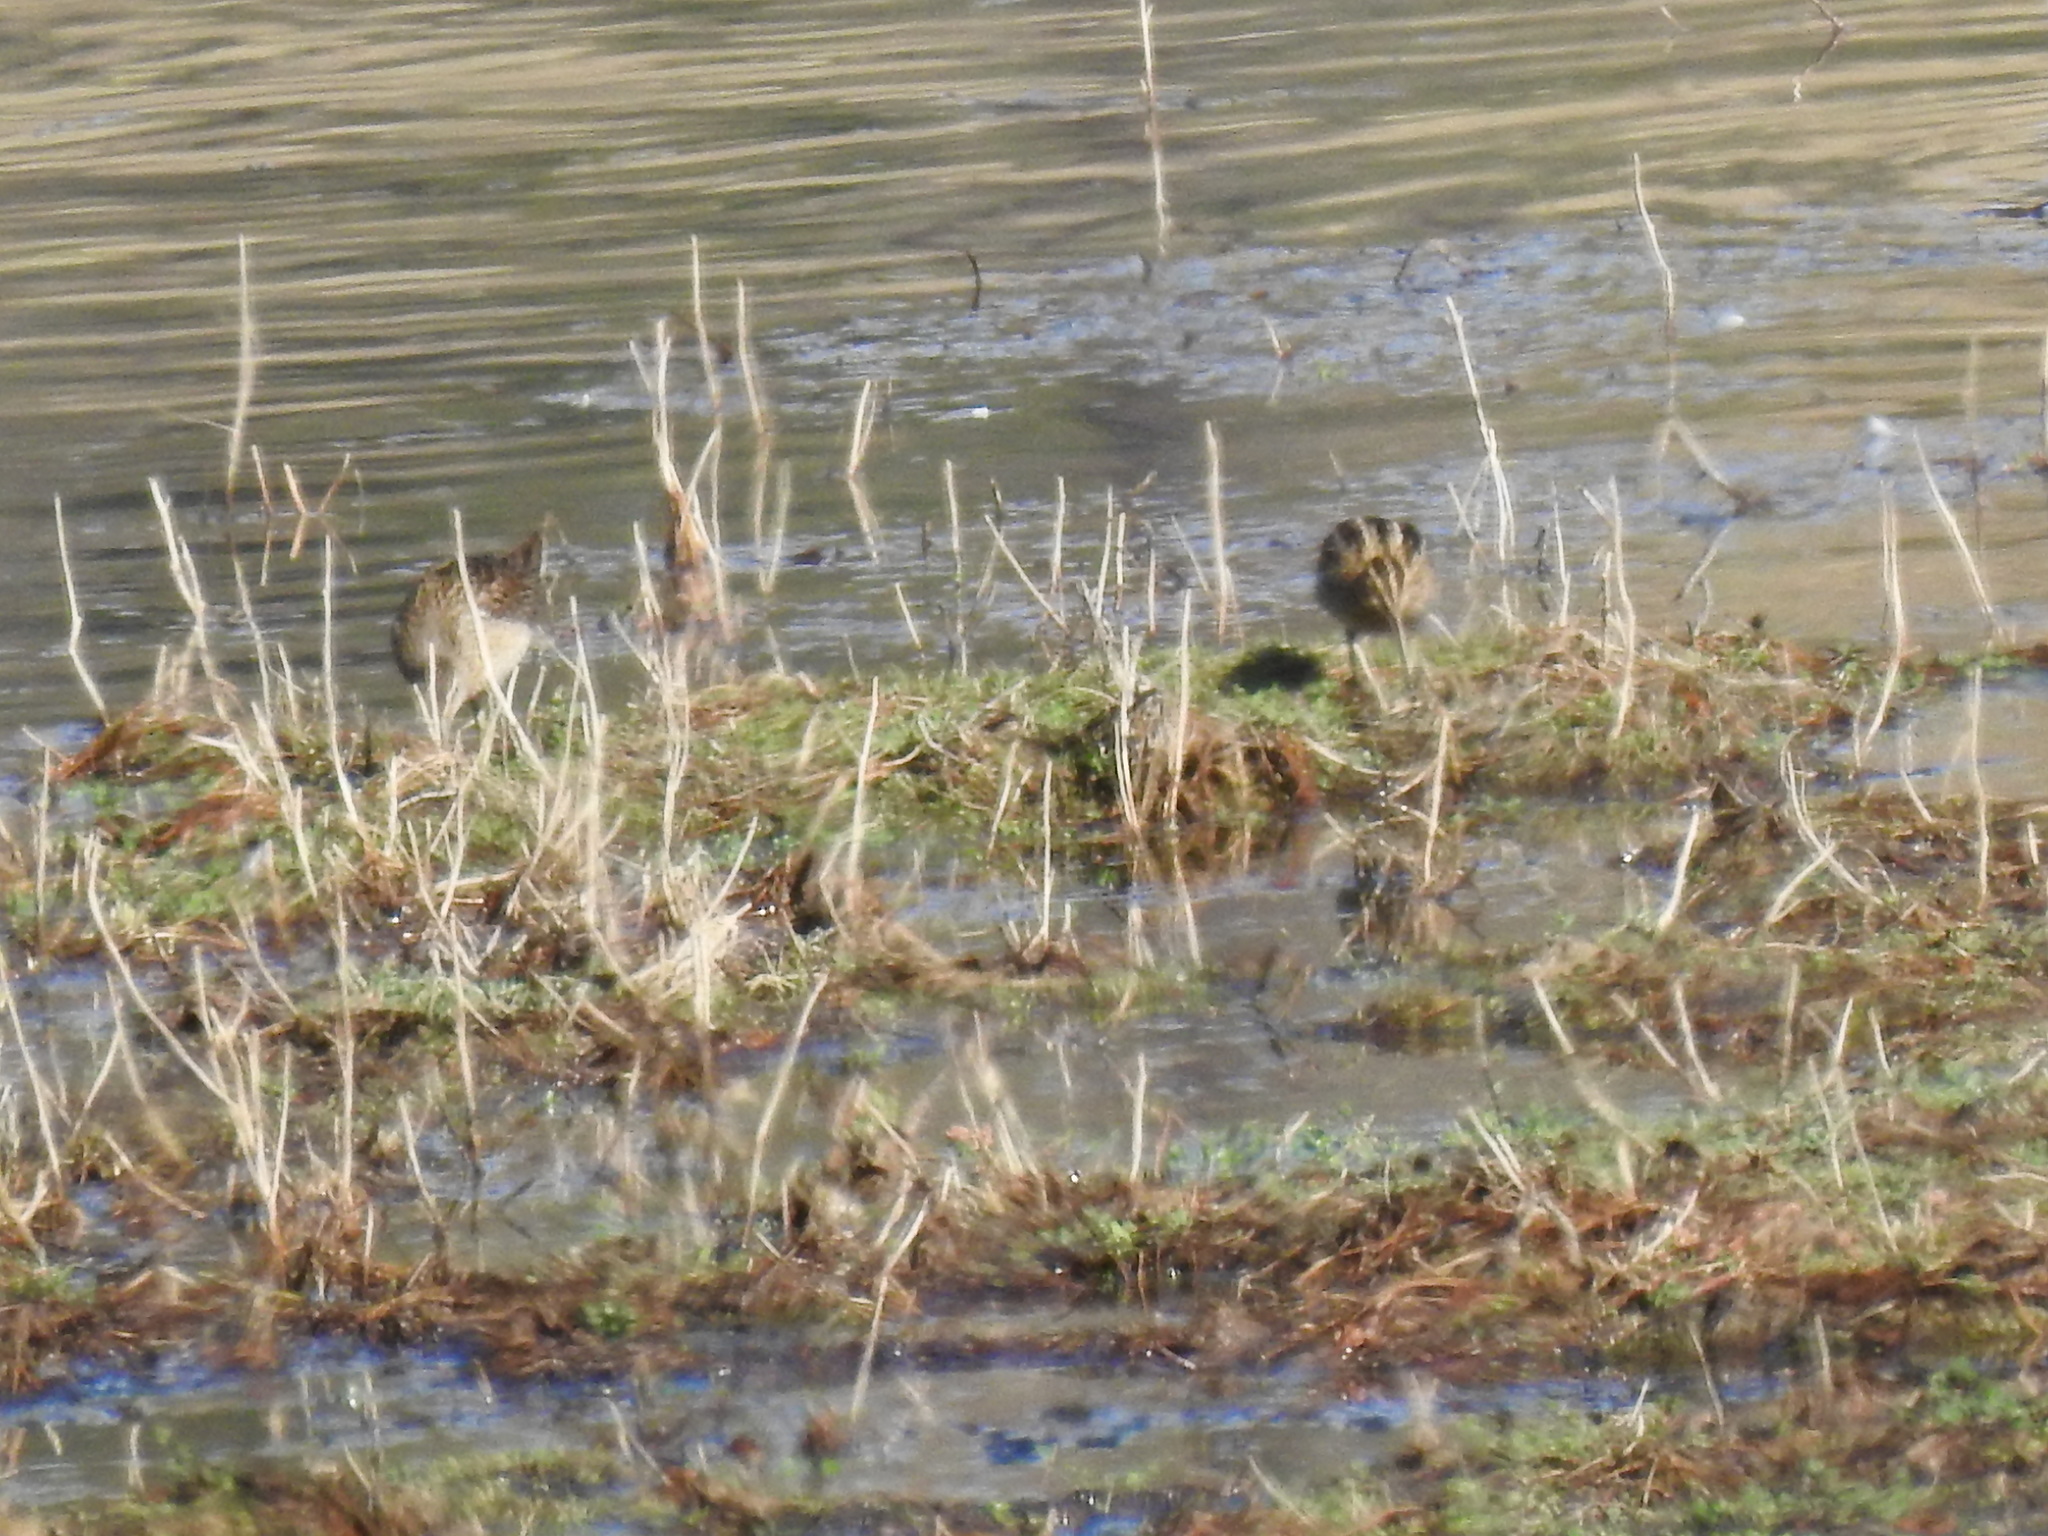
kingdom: Animalia
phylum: Chordata
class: Aves
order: Charadriiformes
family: Scolopacidae
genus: Limnodromus
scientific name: Limnodromus scolopaceus
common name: Long-billed dowitcher
